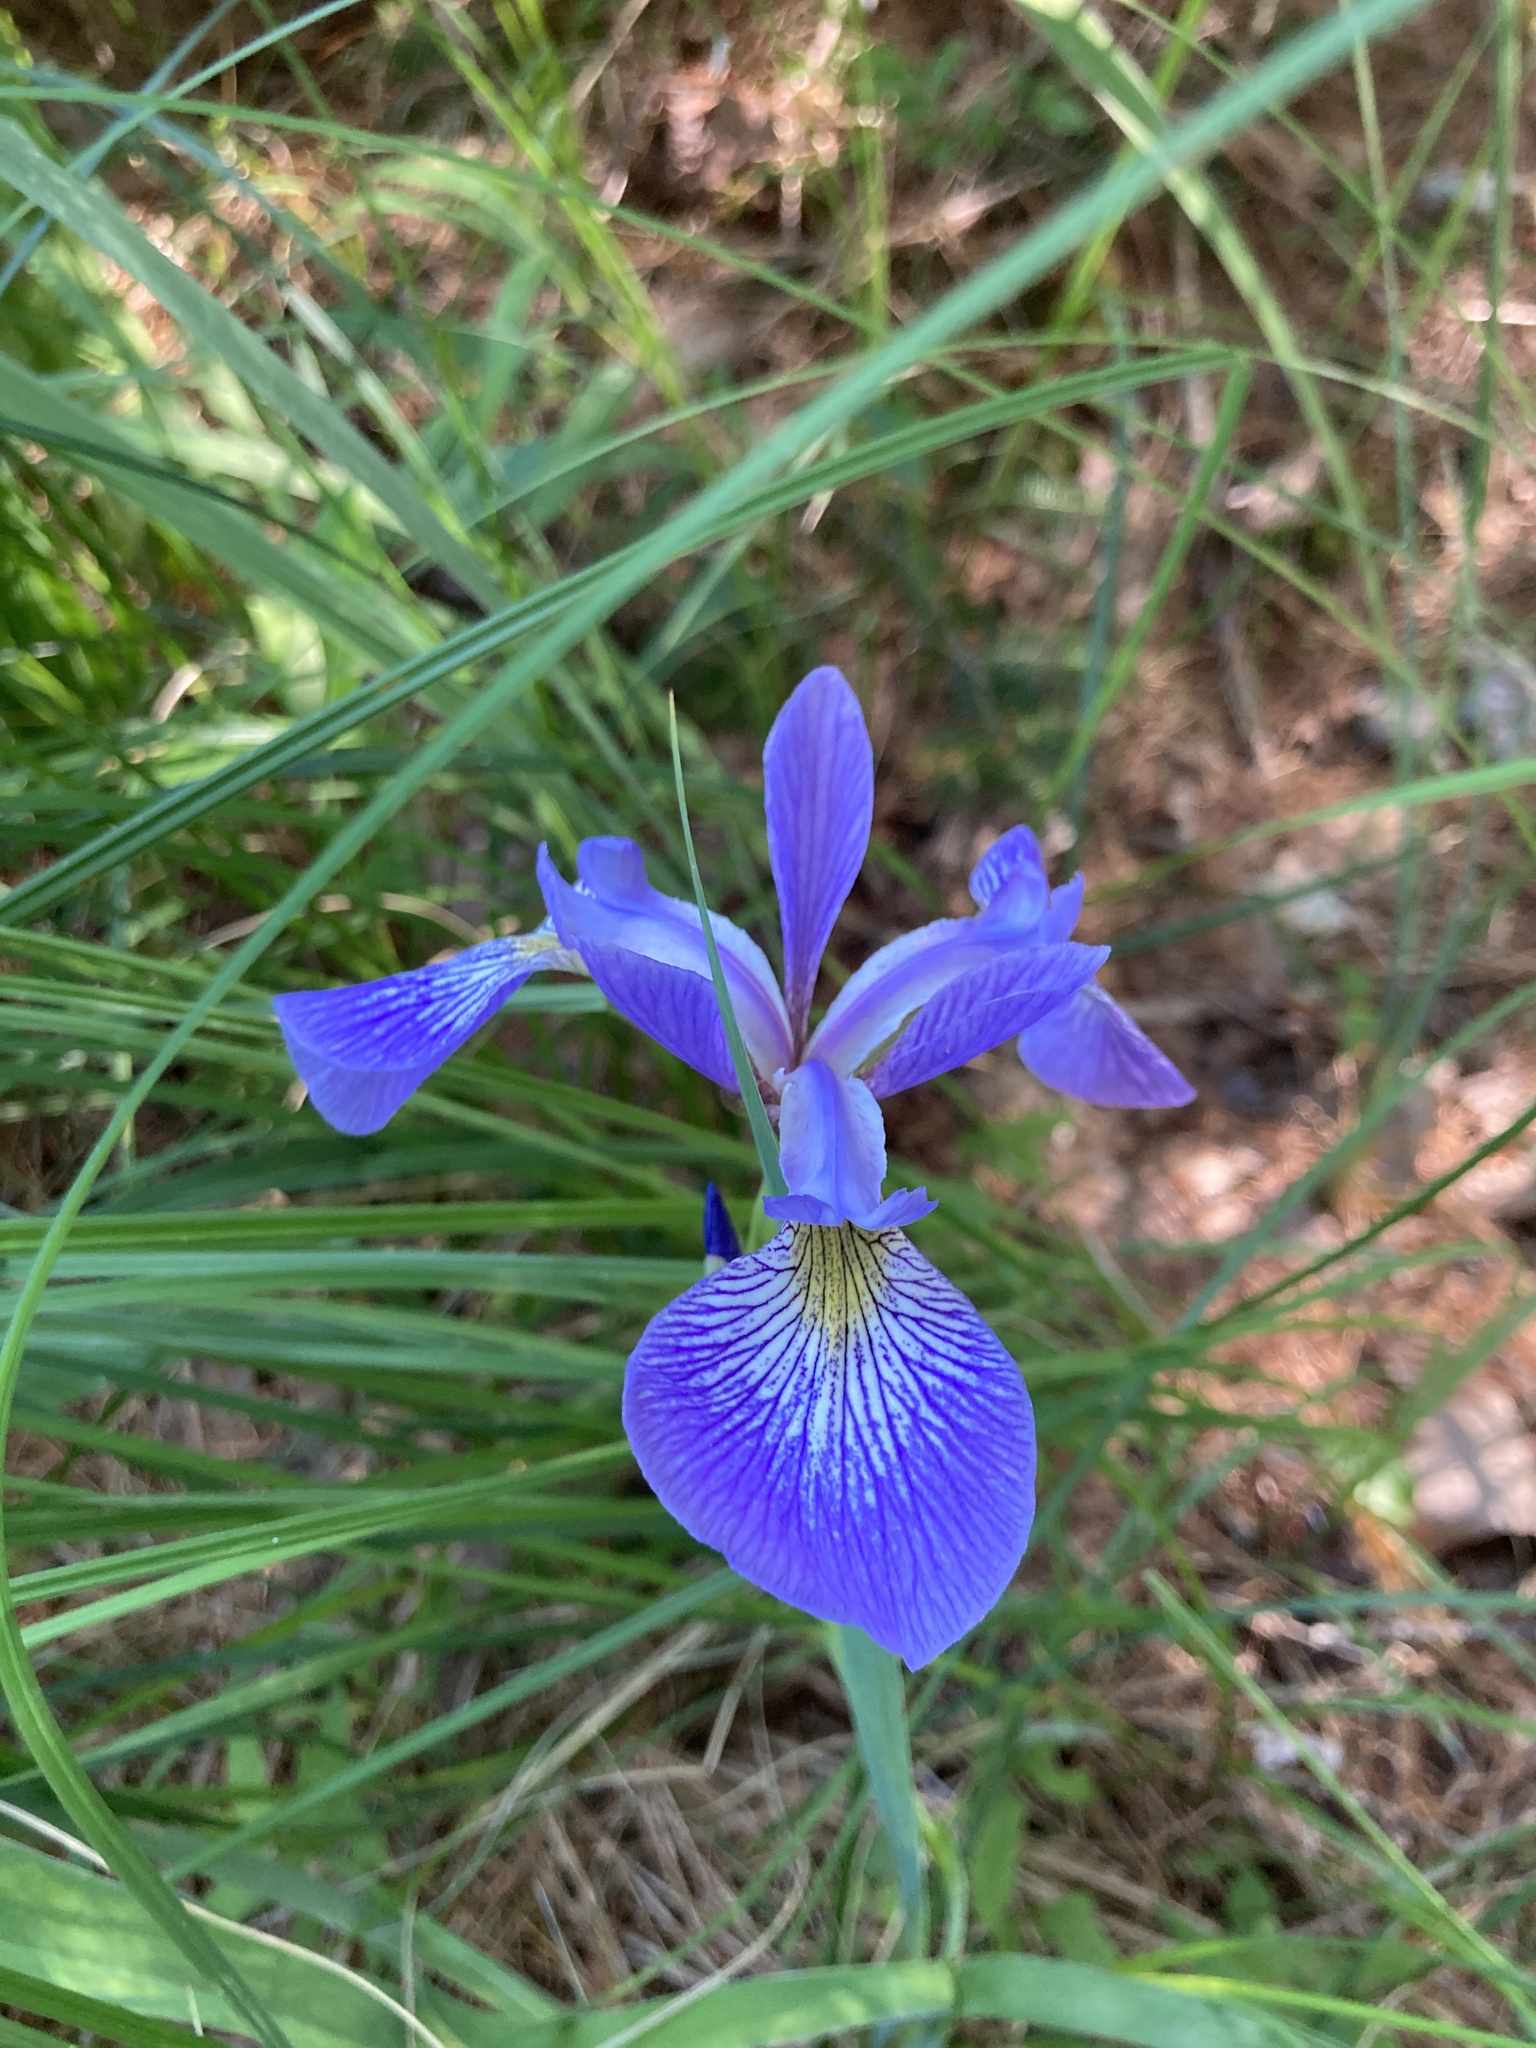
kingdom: Plantae
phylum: Tracheophyta
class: Liliopsida
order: Asparagales
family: Iridaceae
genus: Iris
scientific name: Iris versicolor
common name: Purple iris
